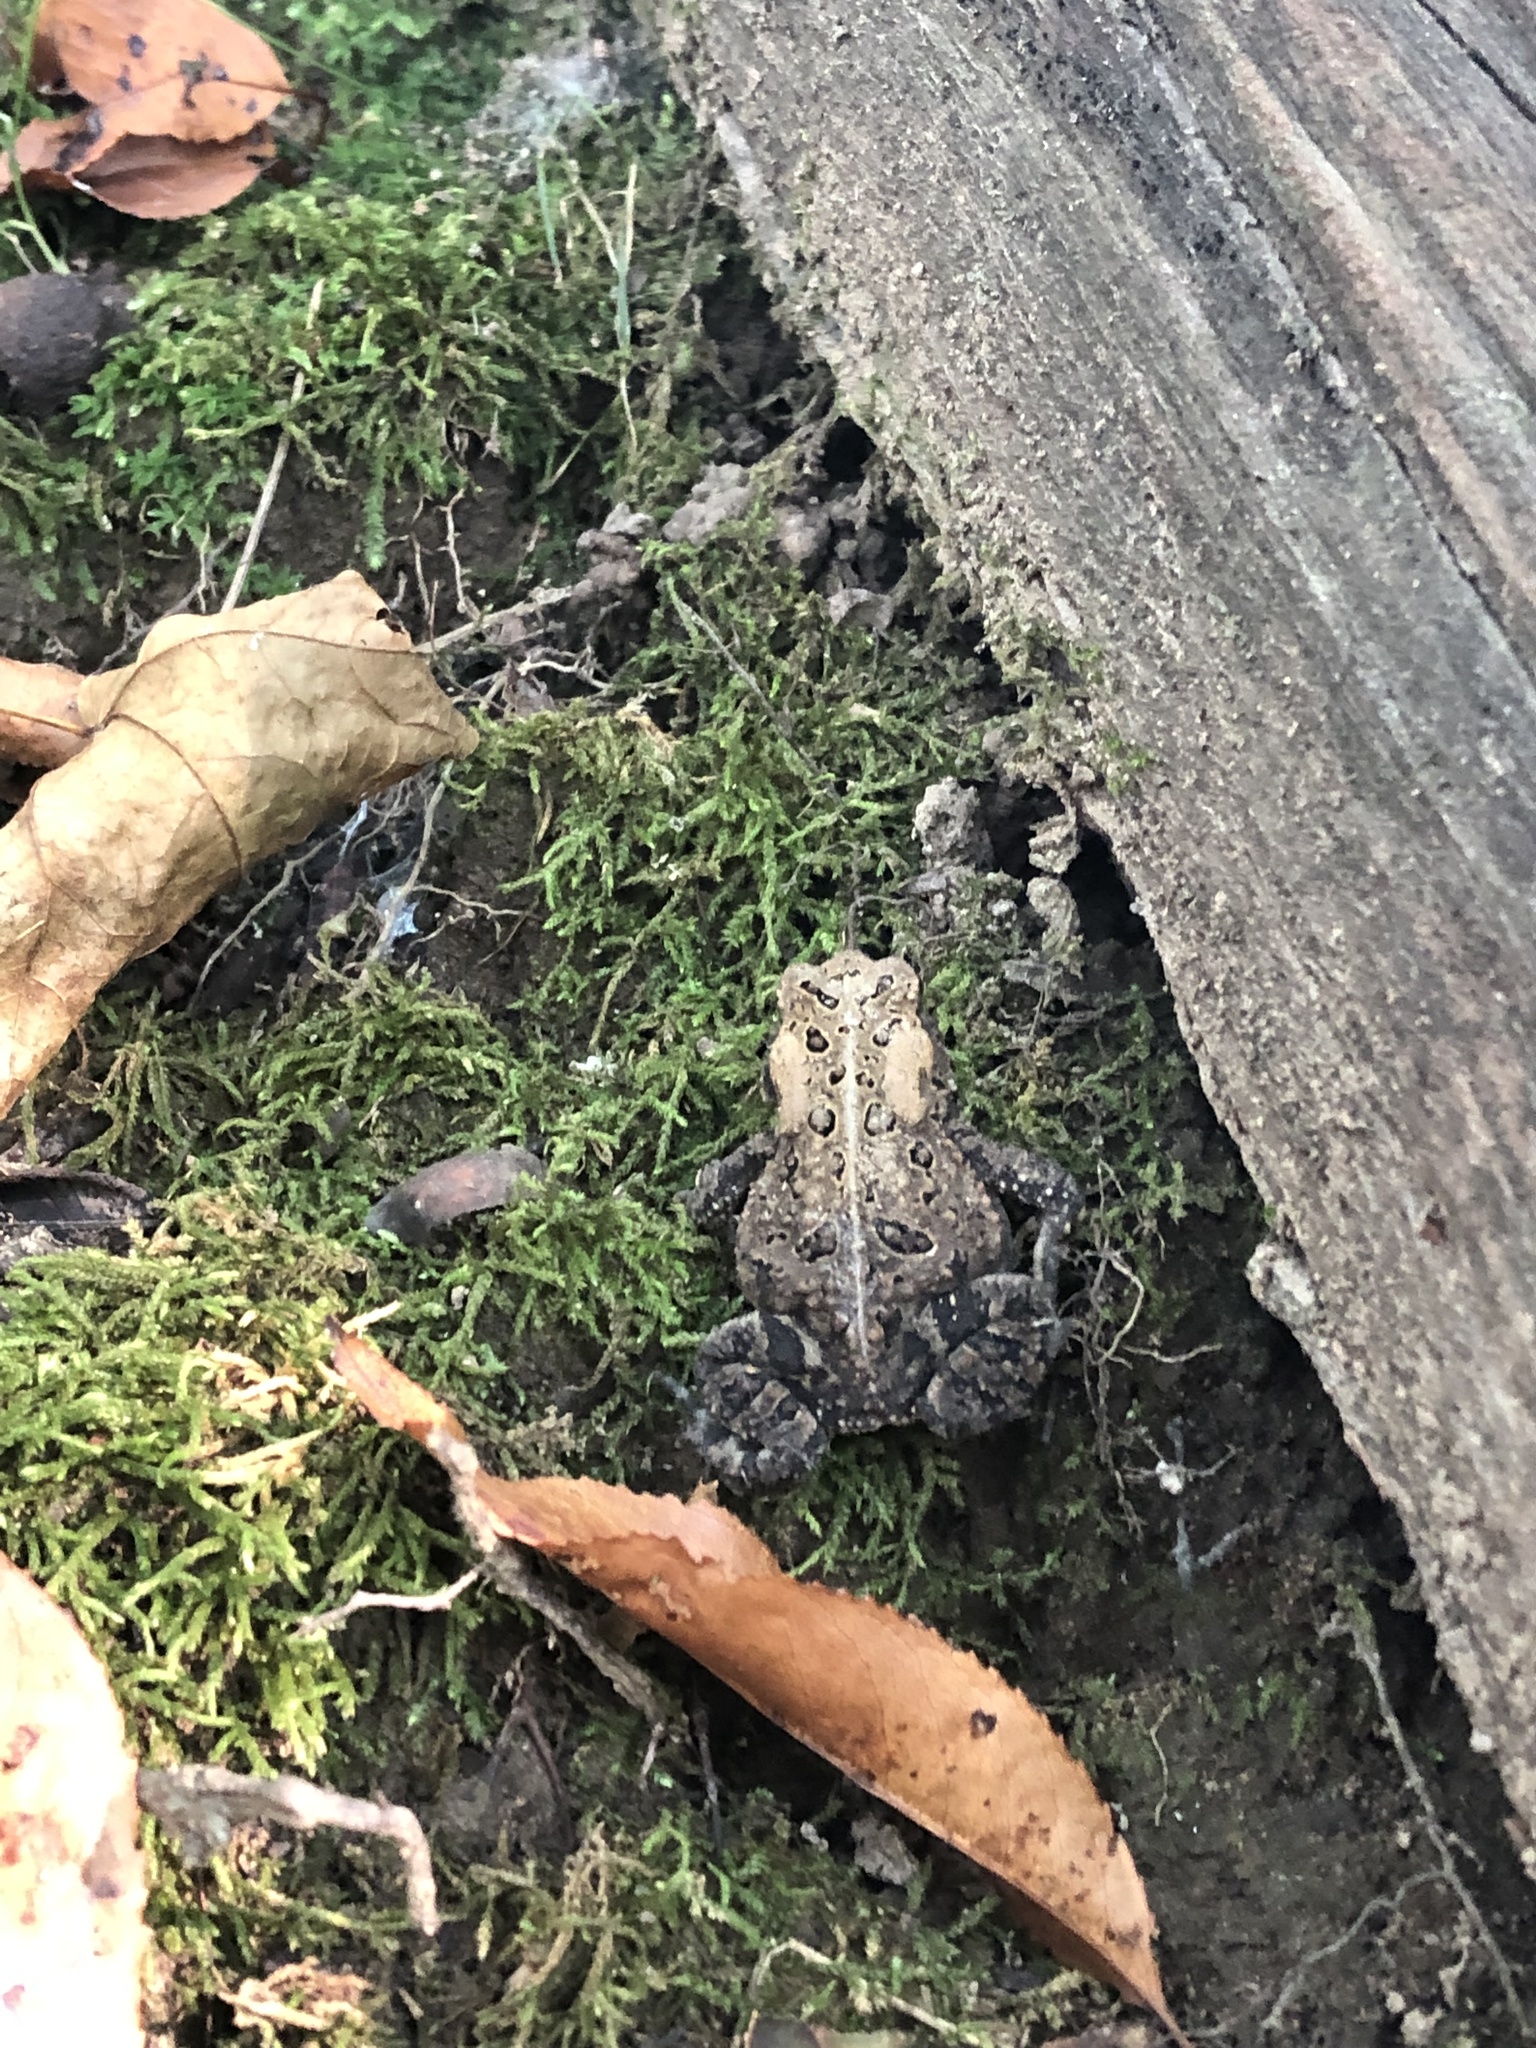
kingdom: Animalia
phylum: Chordata
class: Amphibia
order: Anura
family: Bufonidae
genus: Anaxyrus
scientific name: Anaxyrus americanus
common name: American toad
